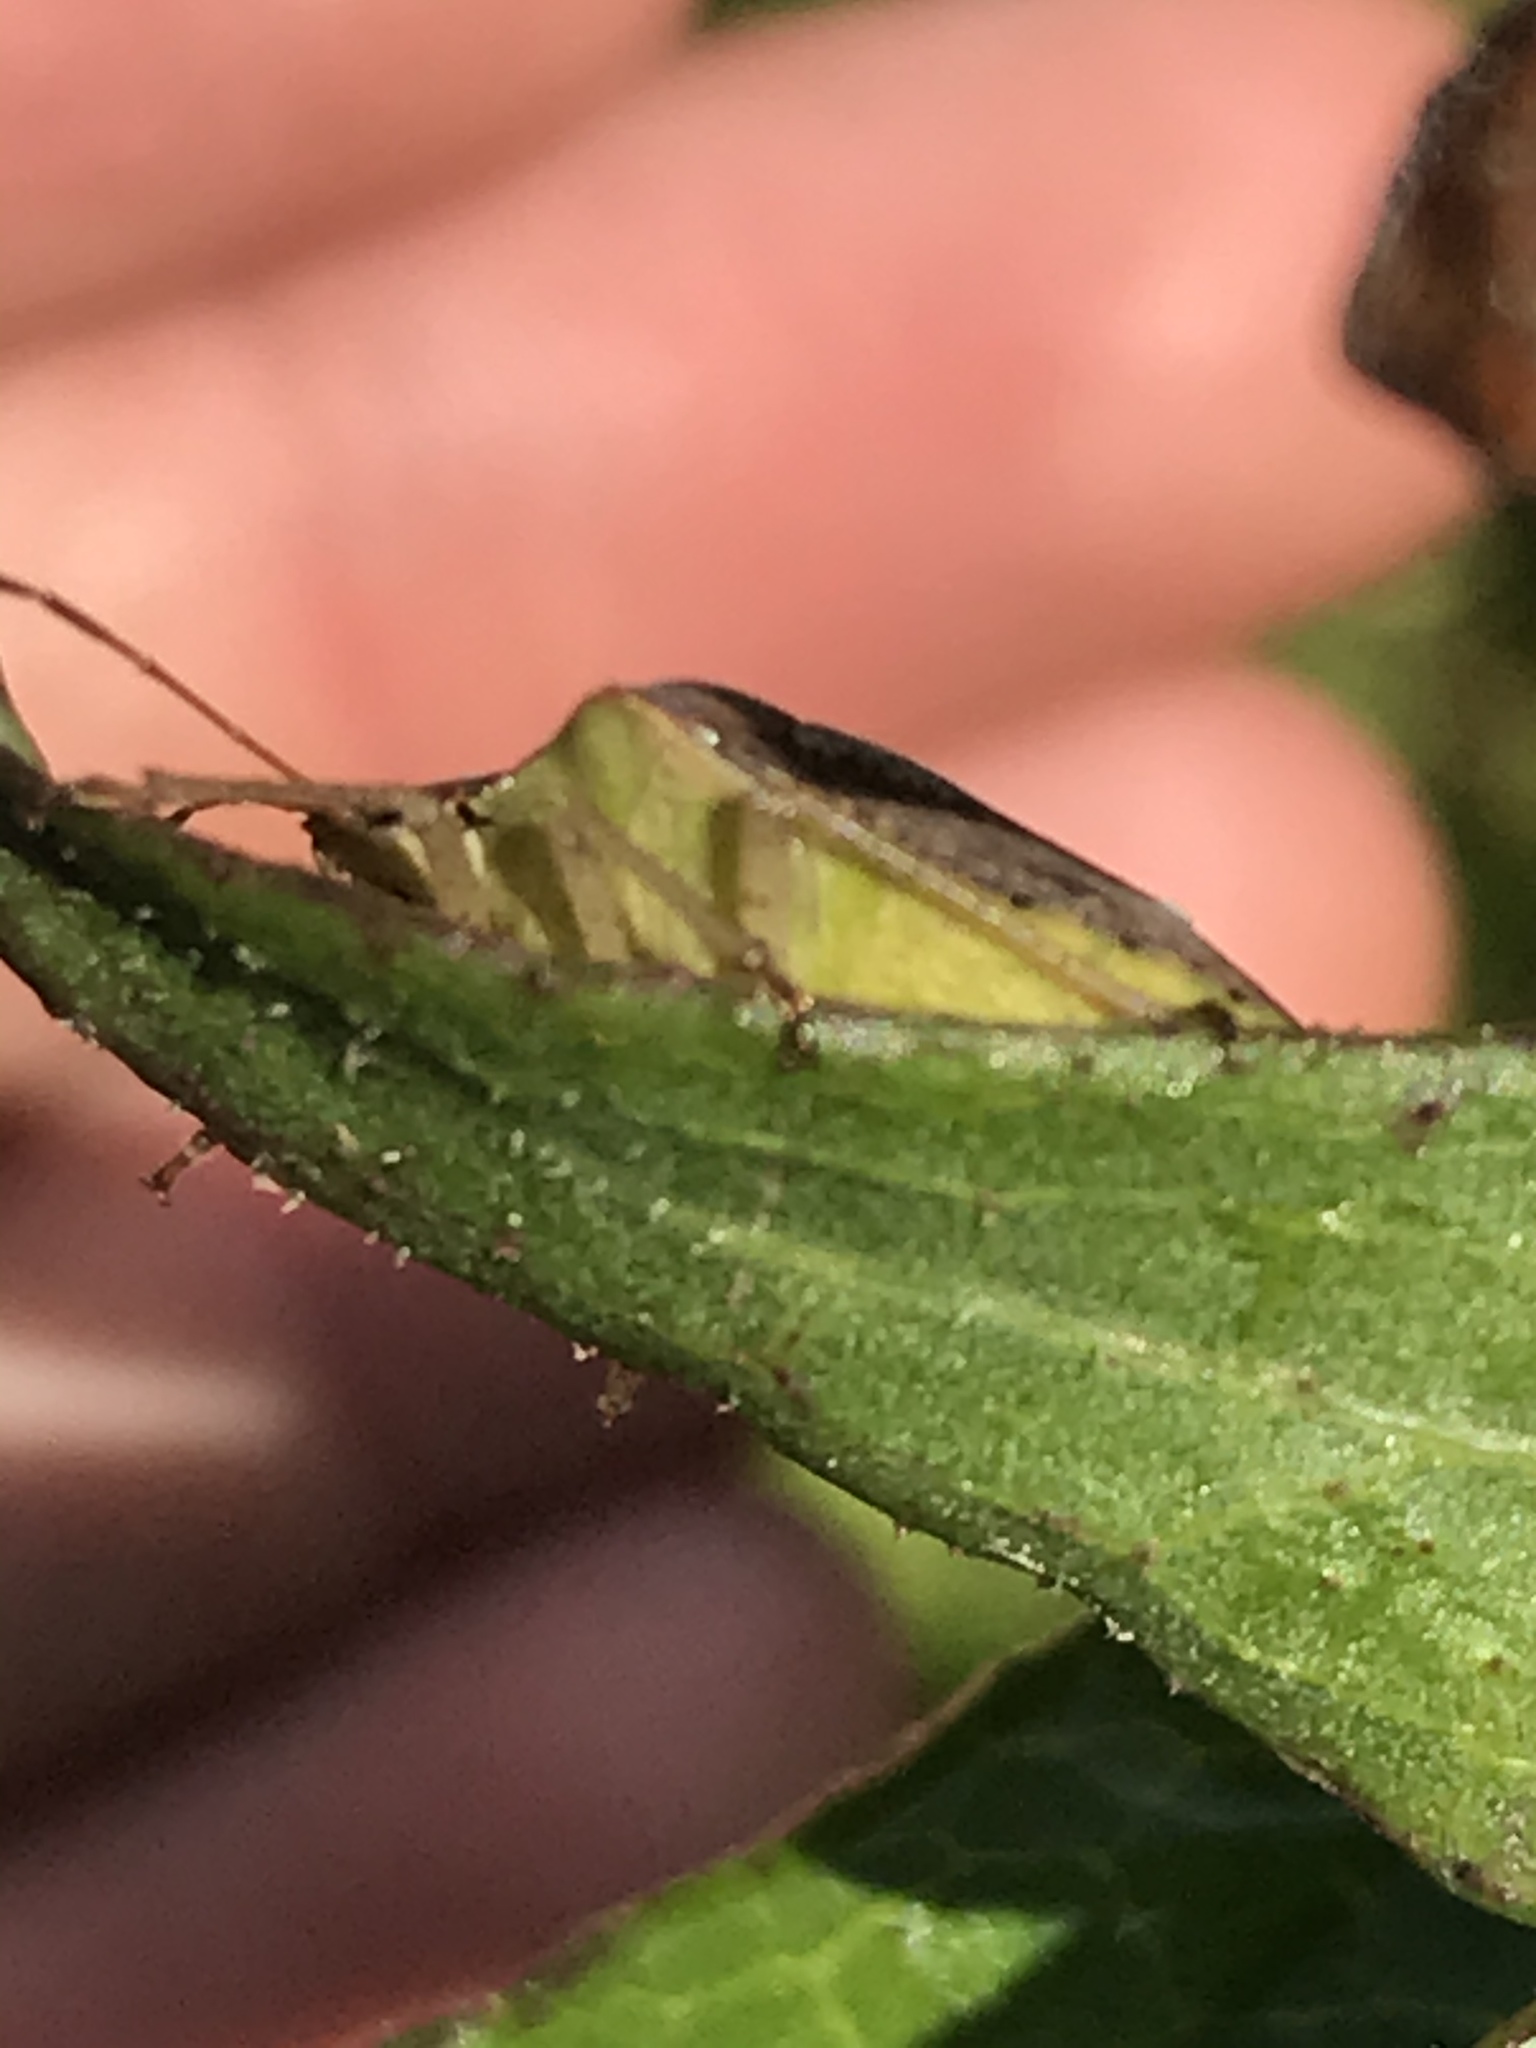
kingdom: Animalia
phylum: Arthropoda
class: Insecta
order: Hemiptera
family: Pentatomidae
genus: Euschistus
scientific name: Euschistus servus
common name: Brown stink bug
